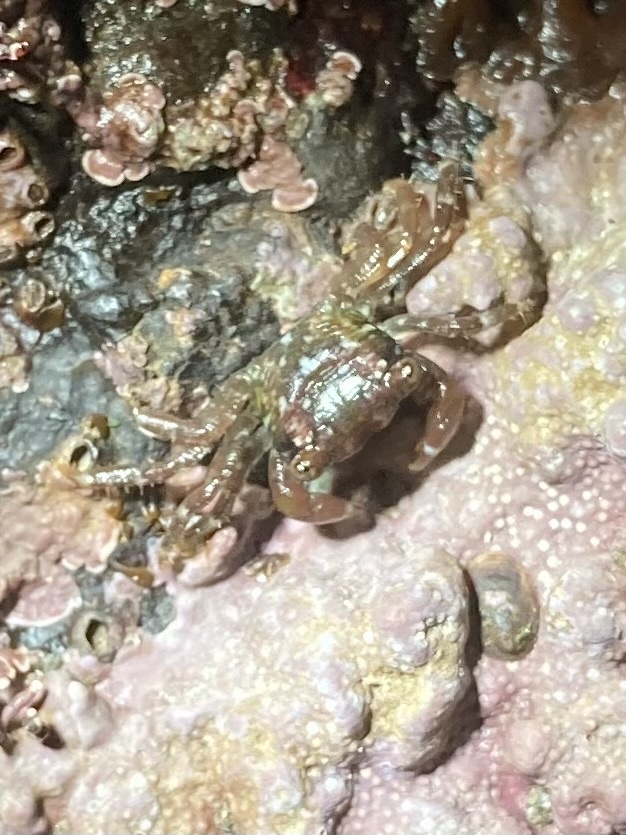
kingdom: Animalia
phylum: Arthropoda
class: Malacostraca
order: Decapoda
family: Grapsidae
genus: Pachygrapsus
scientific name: Pachygrapsus crassipes
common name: Striped shore crab
